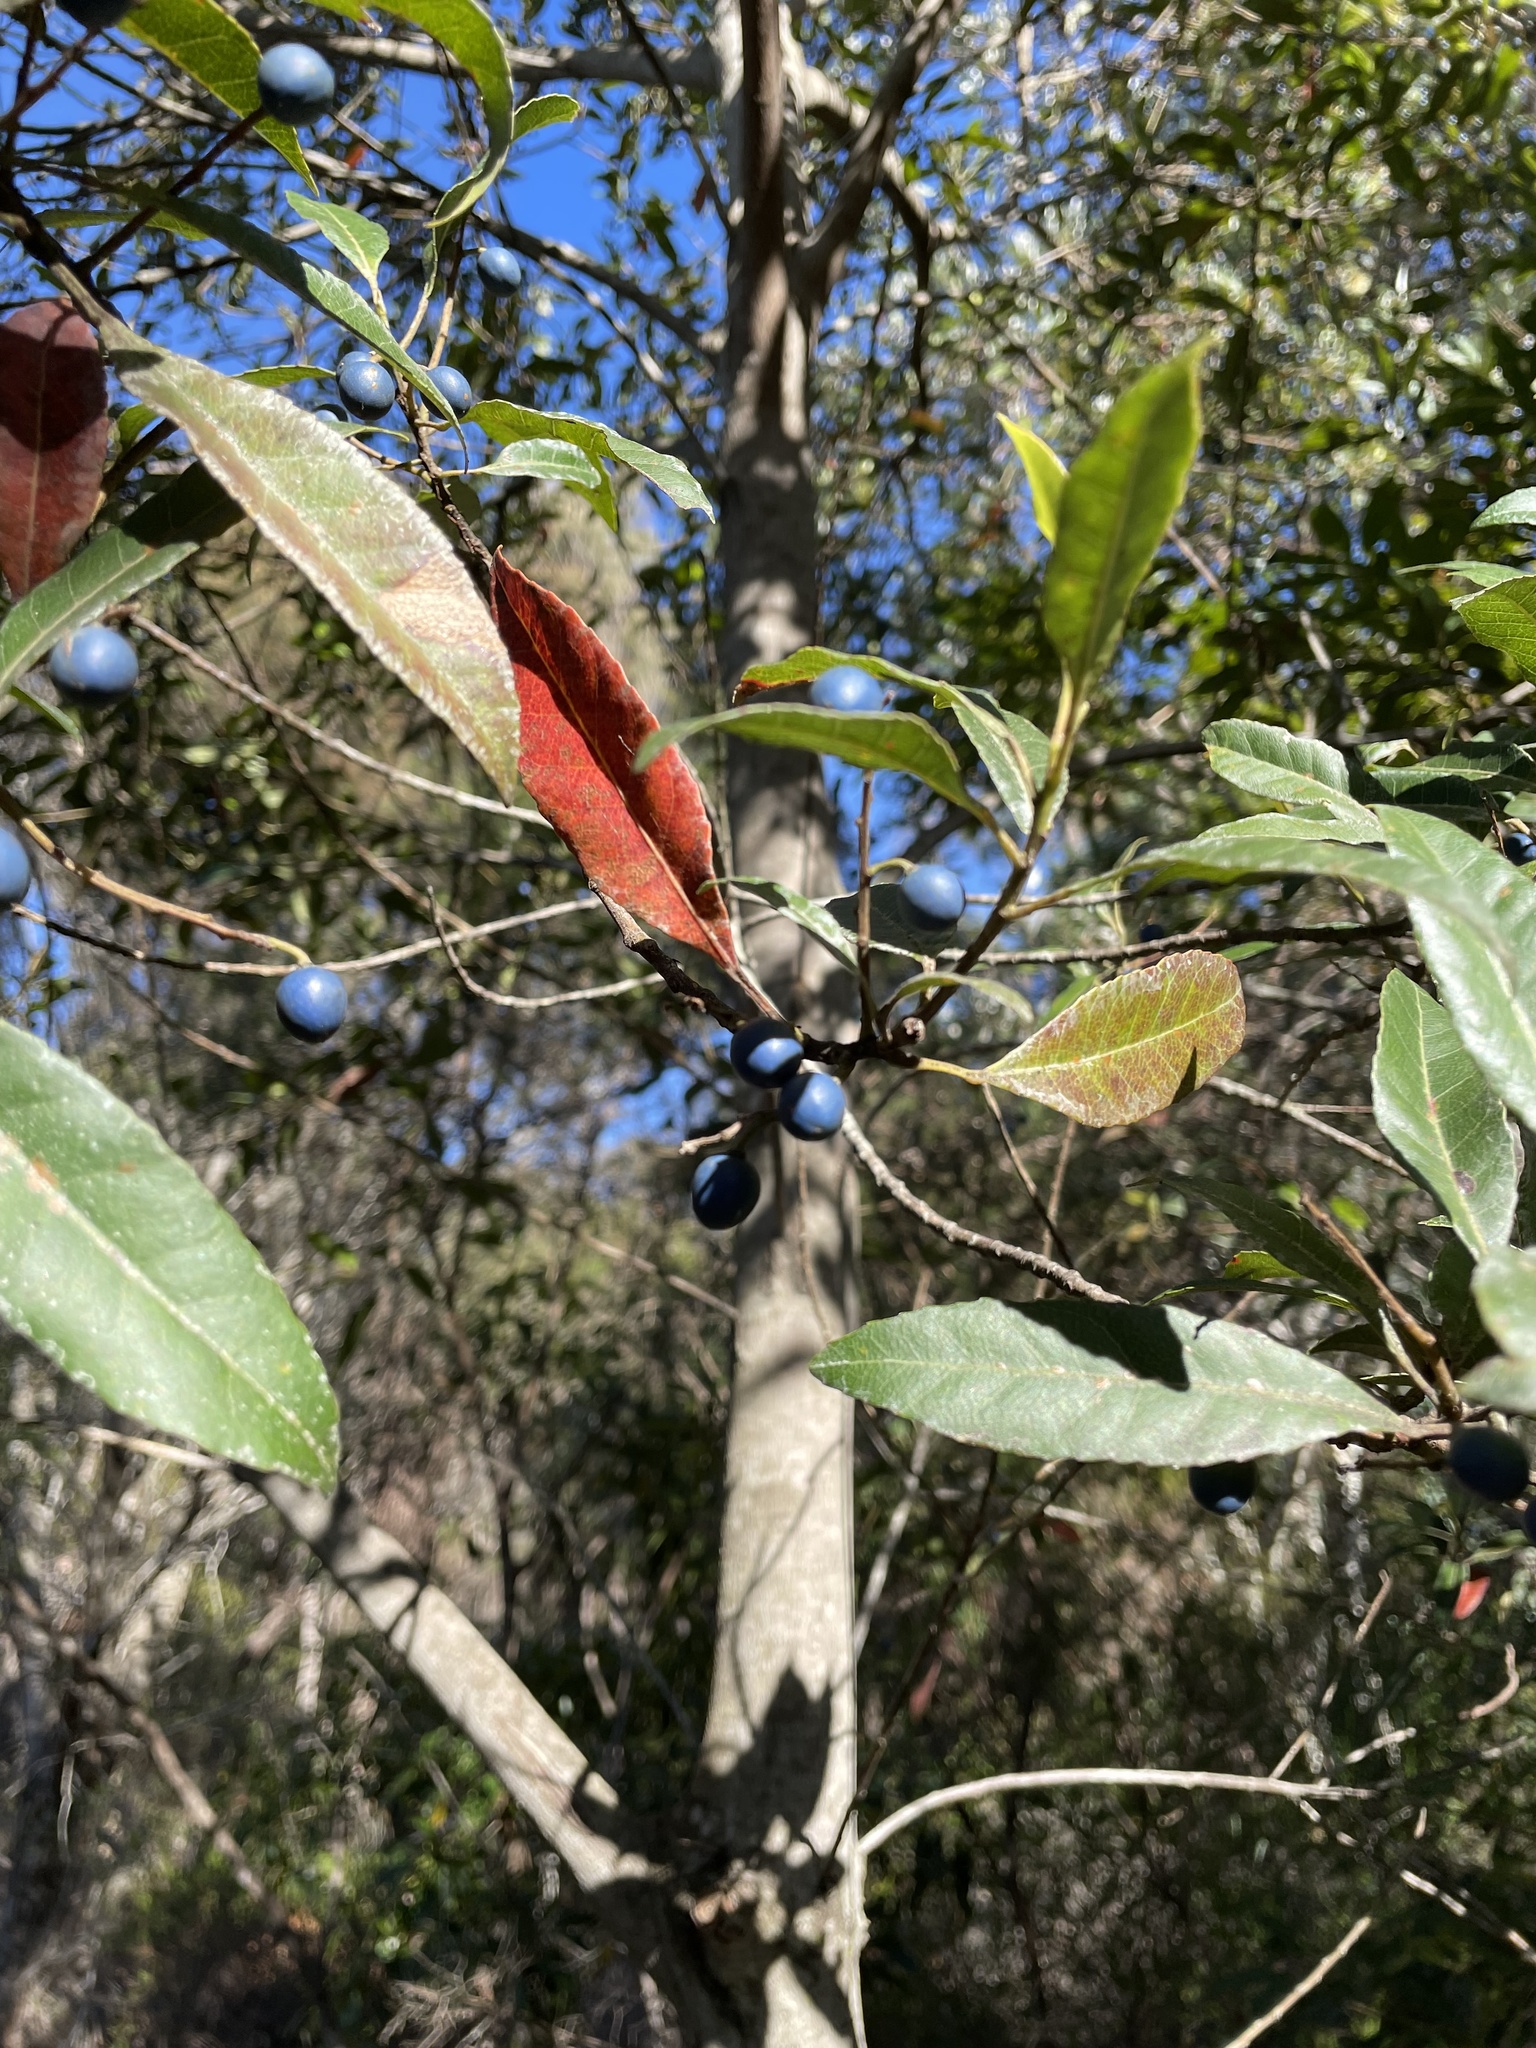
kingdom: Plantae
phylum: Tracheophyta
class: Magnoliopsida
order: Oxalidales
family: Elaeocarpaceae
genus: Elaeocarpus
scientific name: Elaeocarpus reticulatus
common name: Ash quandong
